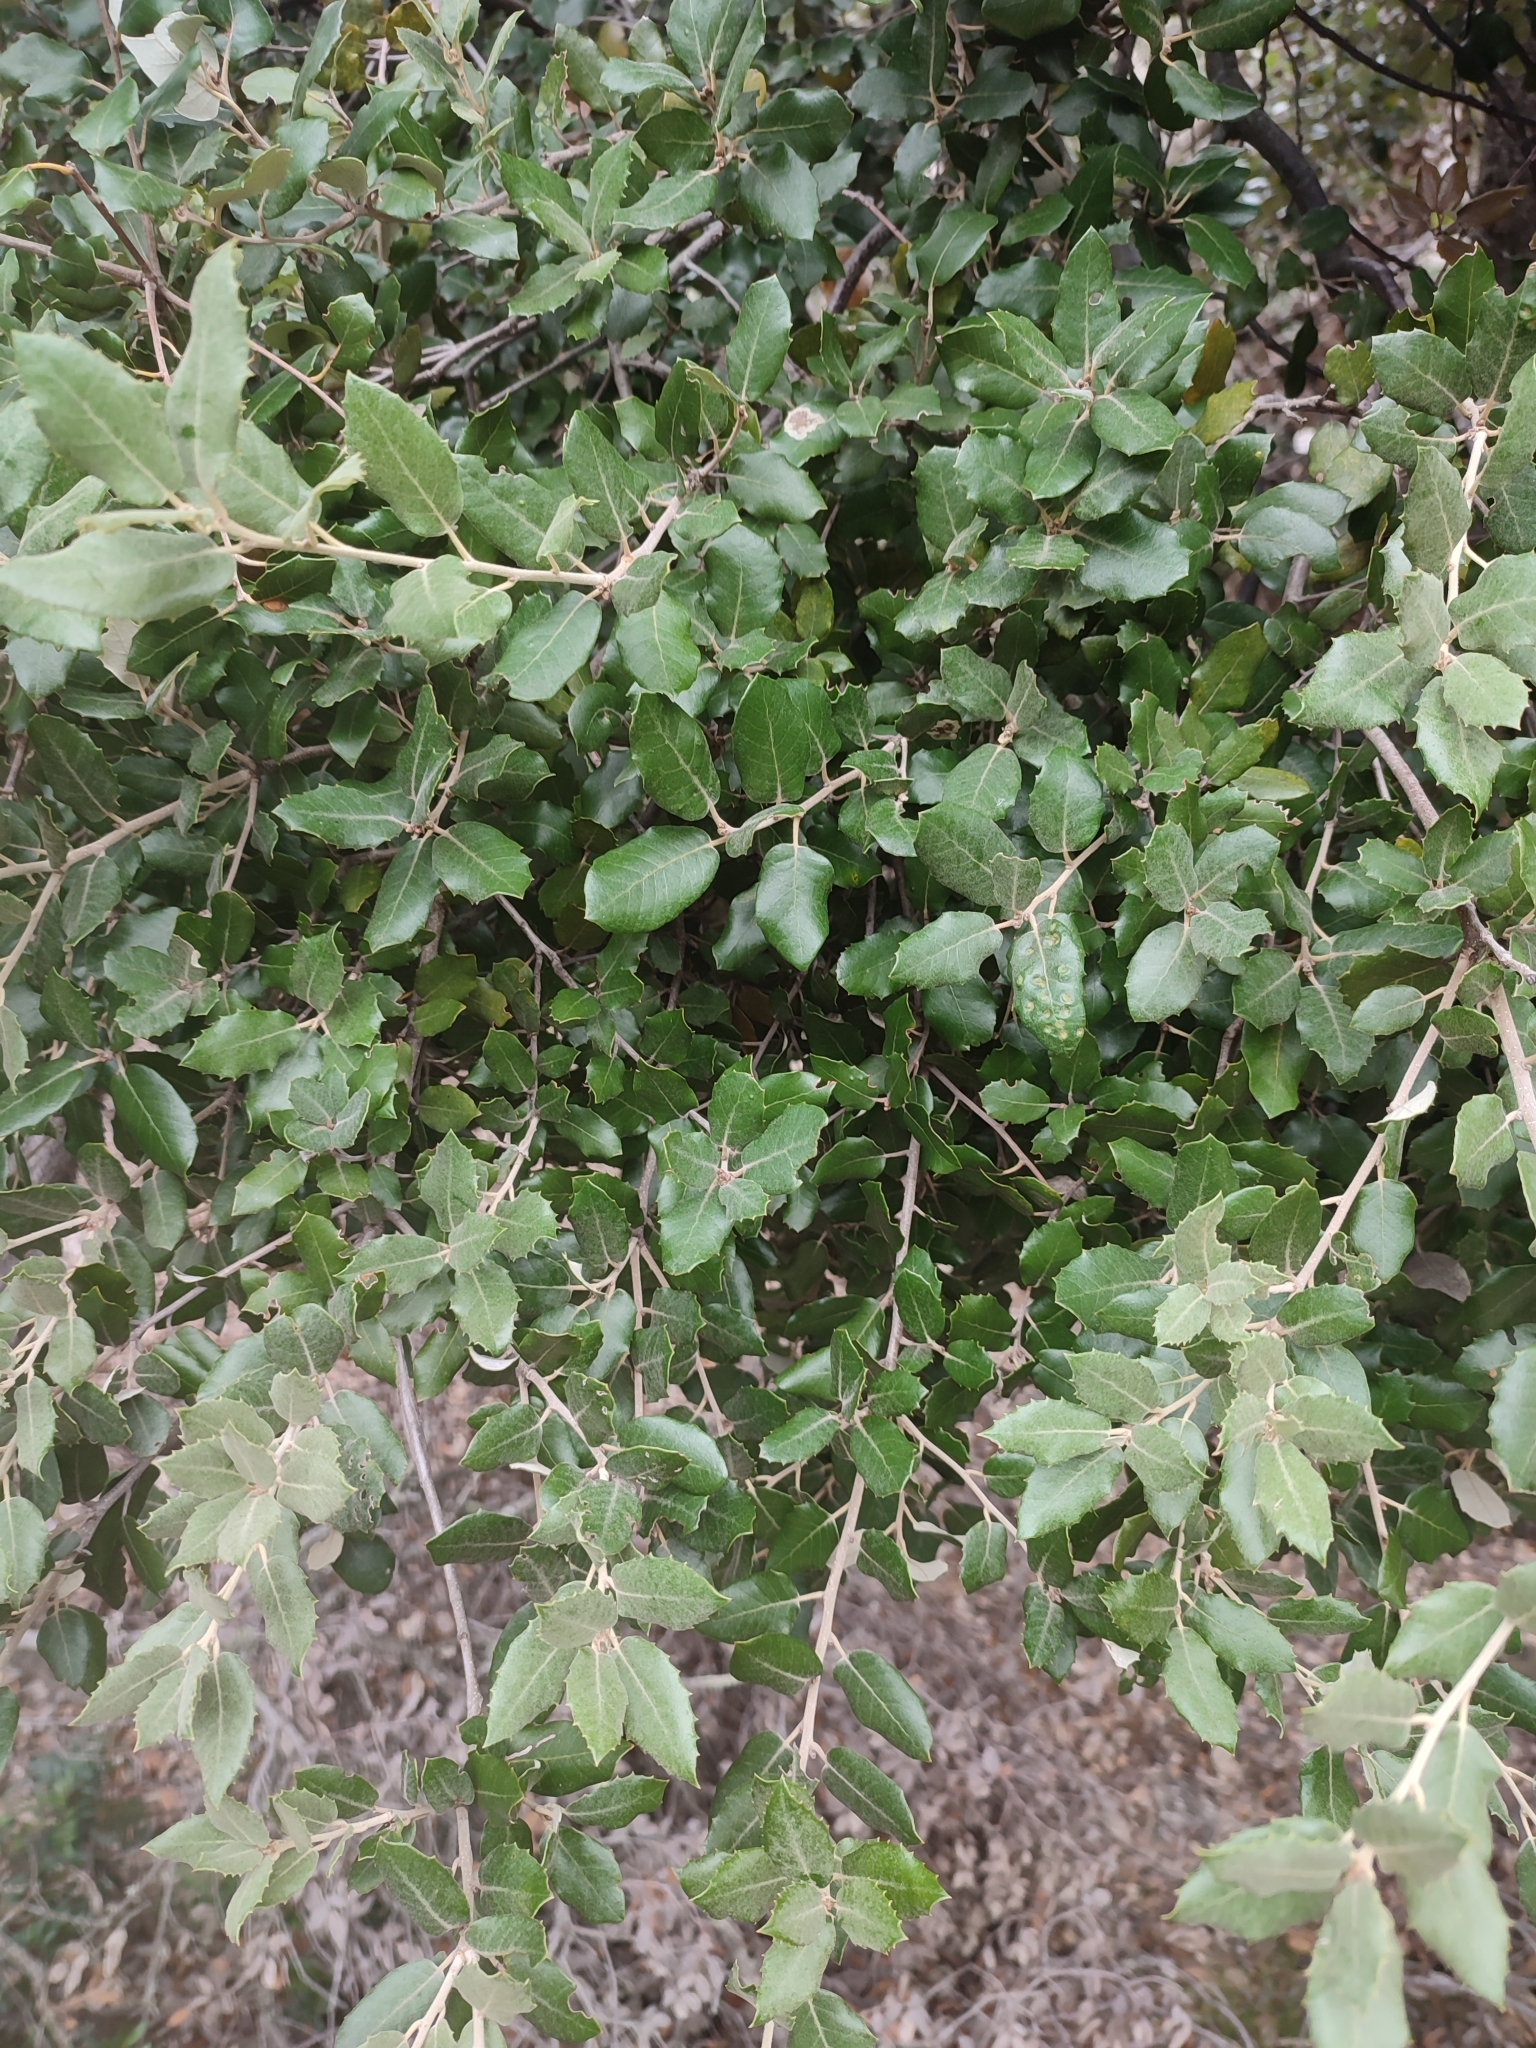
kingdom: Plantae
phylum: Tracheophyta
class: Magnoliopsida
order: Fagales
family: Fagaceae
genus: Quercus
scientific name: Quercus ilex
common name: Evergreen oak
